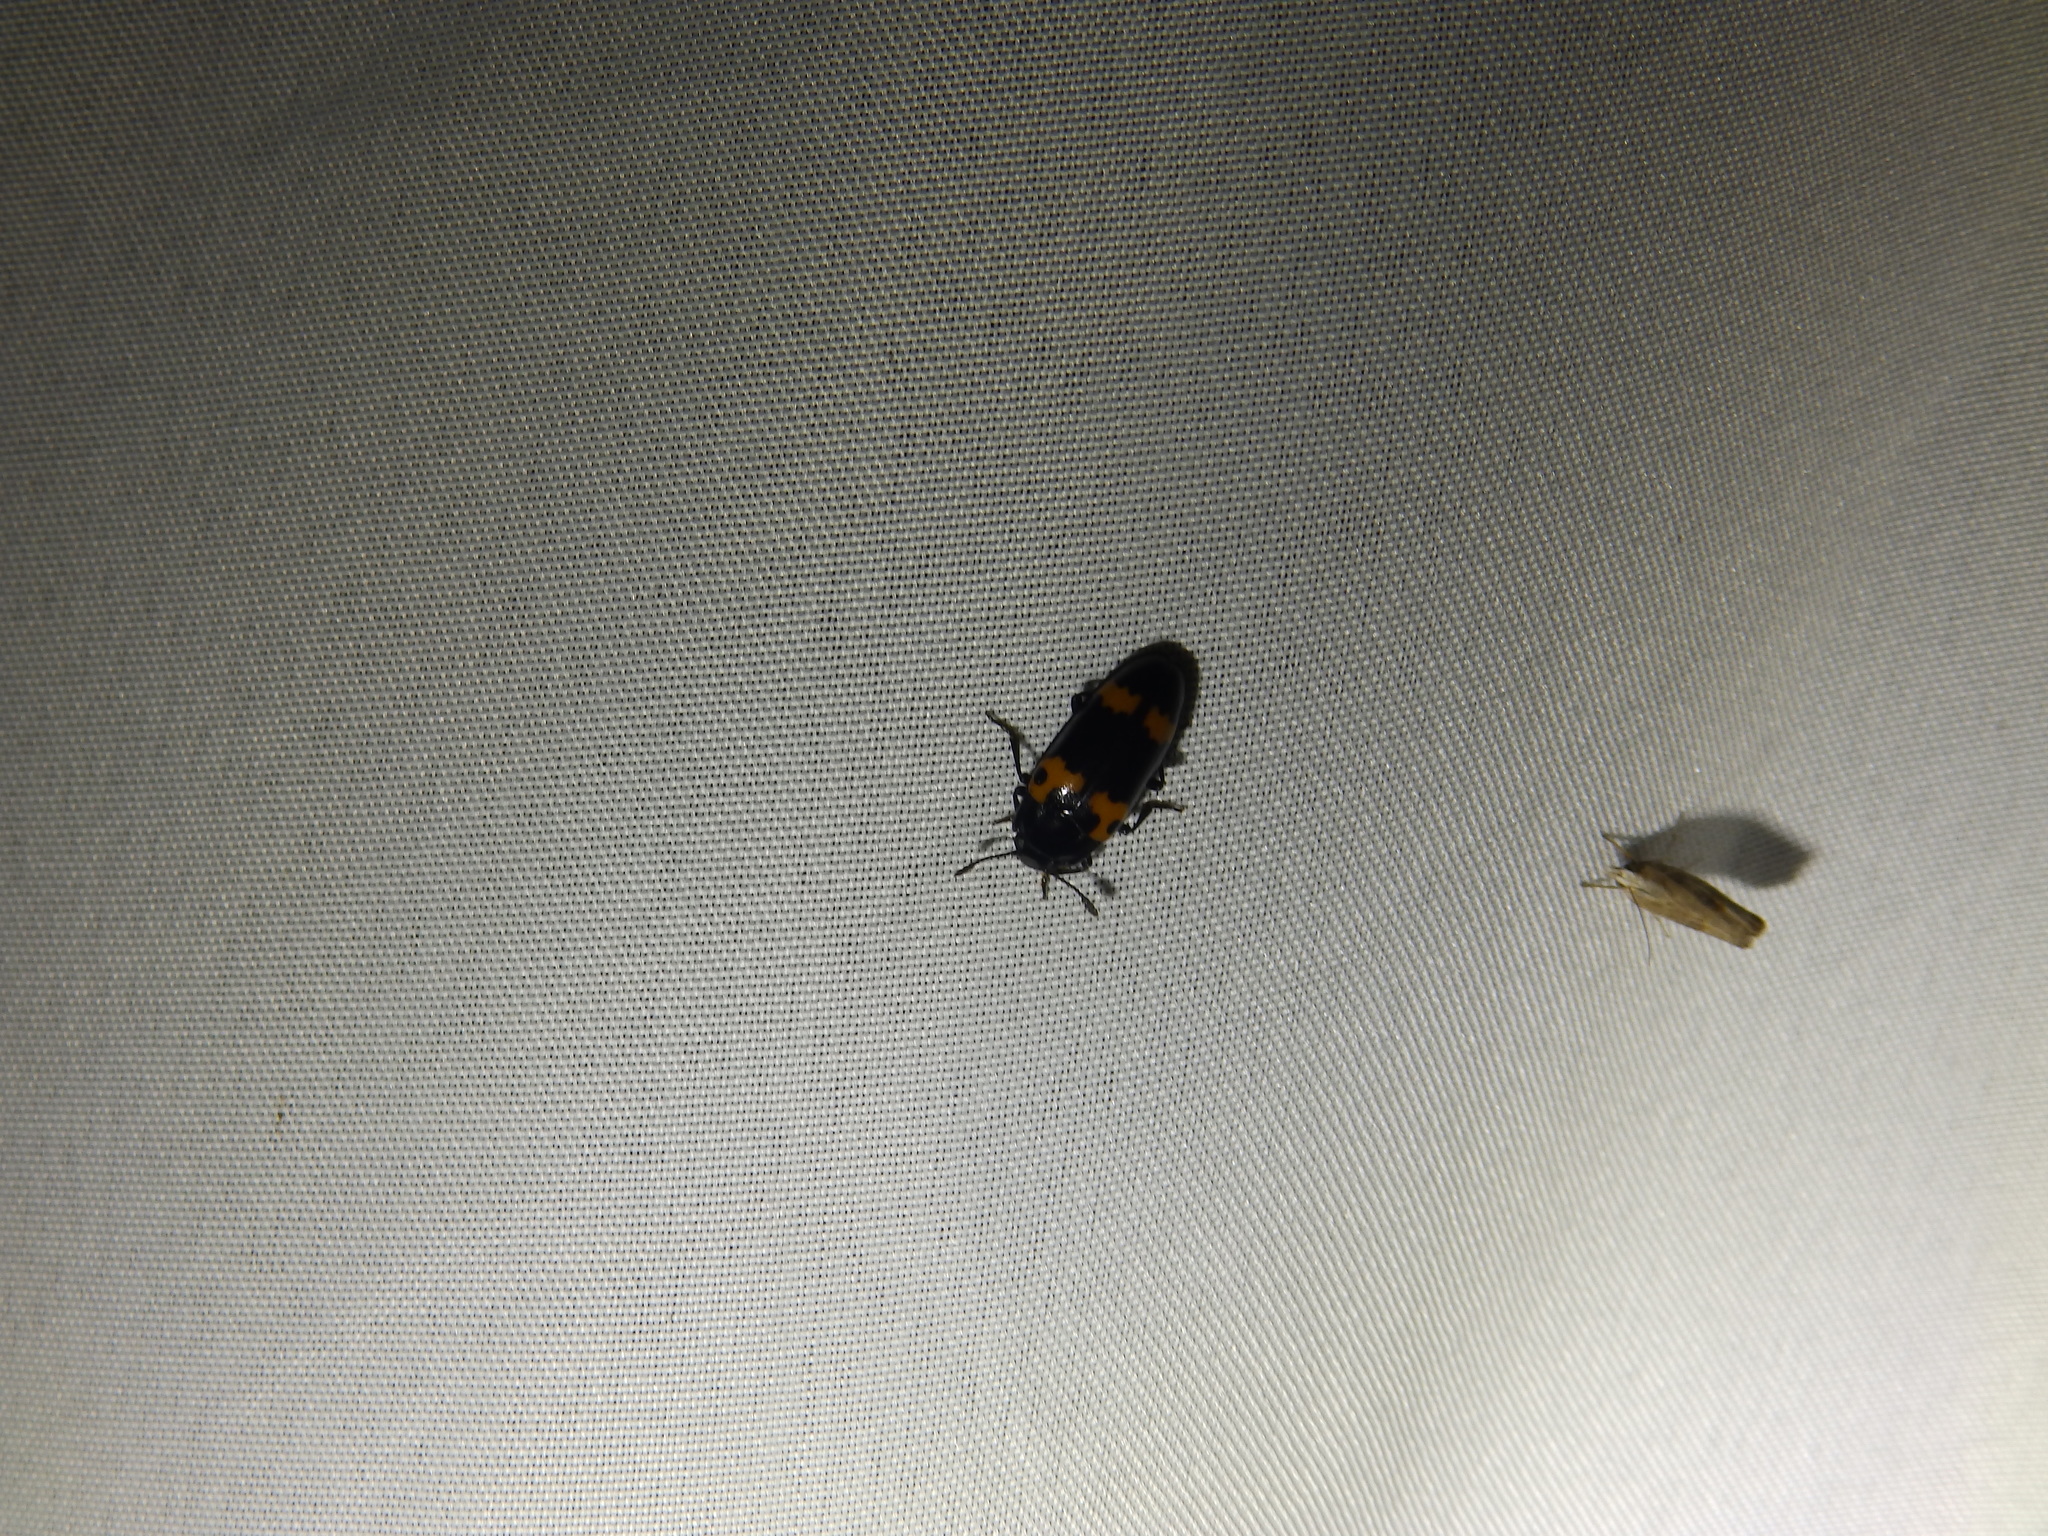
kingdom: Animalia
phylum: Arthropoda
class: Insecta
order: Coleoptera
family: Erotylidae
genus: Megalodacne
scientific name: Megalodacne fasciata
